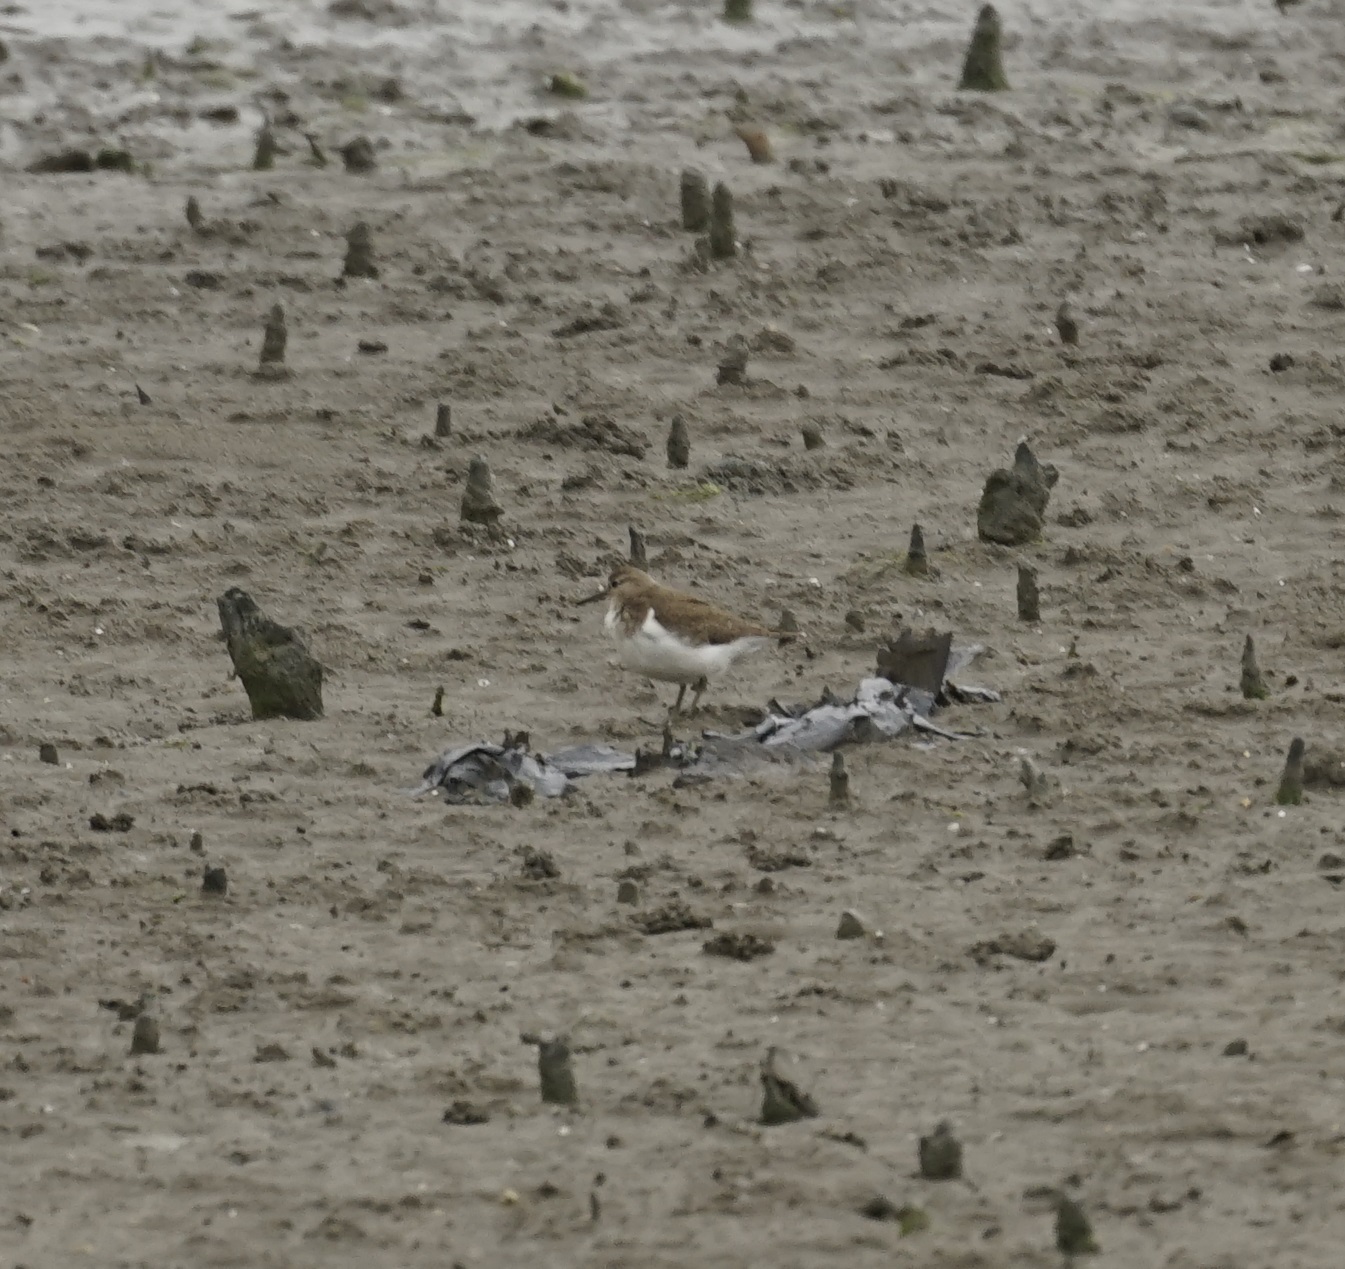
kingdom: Animalia
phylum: Chordata
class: Aves
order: Charadriiformes
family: Scolopacidae
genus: Actitis
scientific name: Actitis hypoleucos
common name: Common sandpiper
